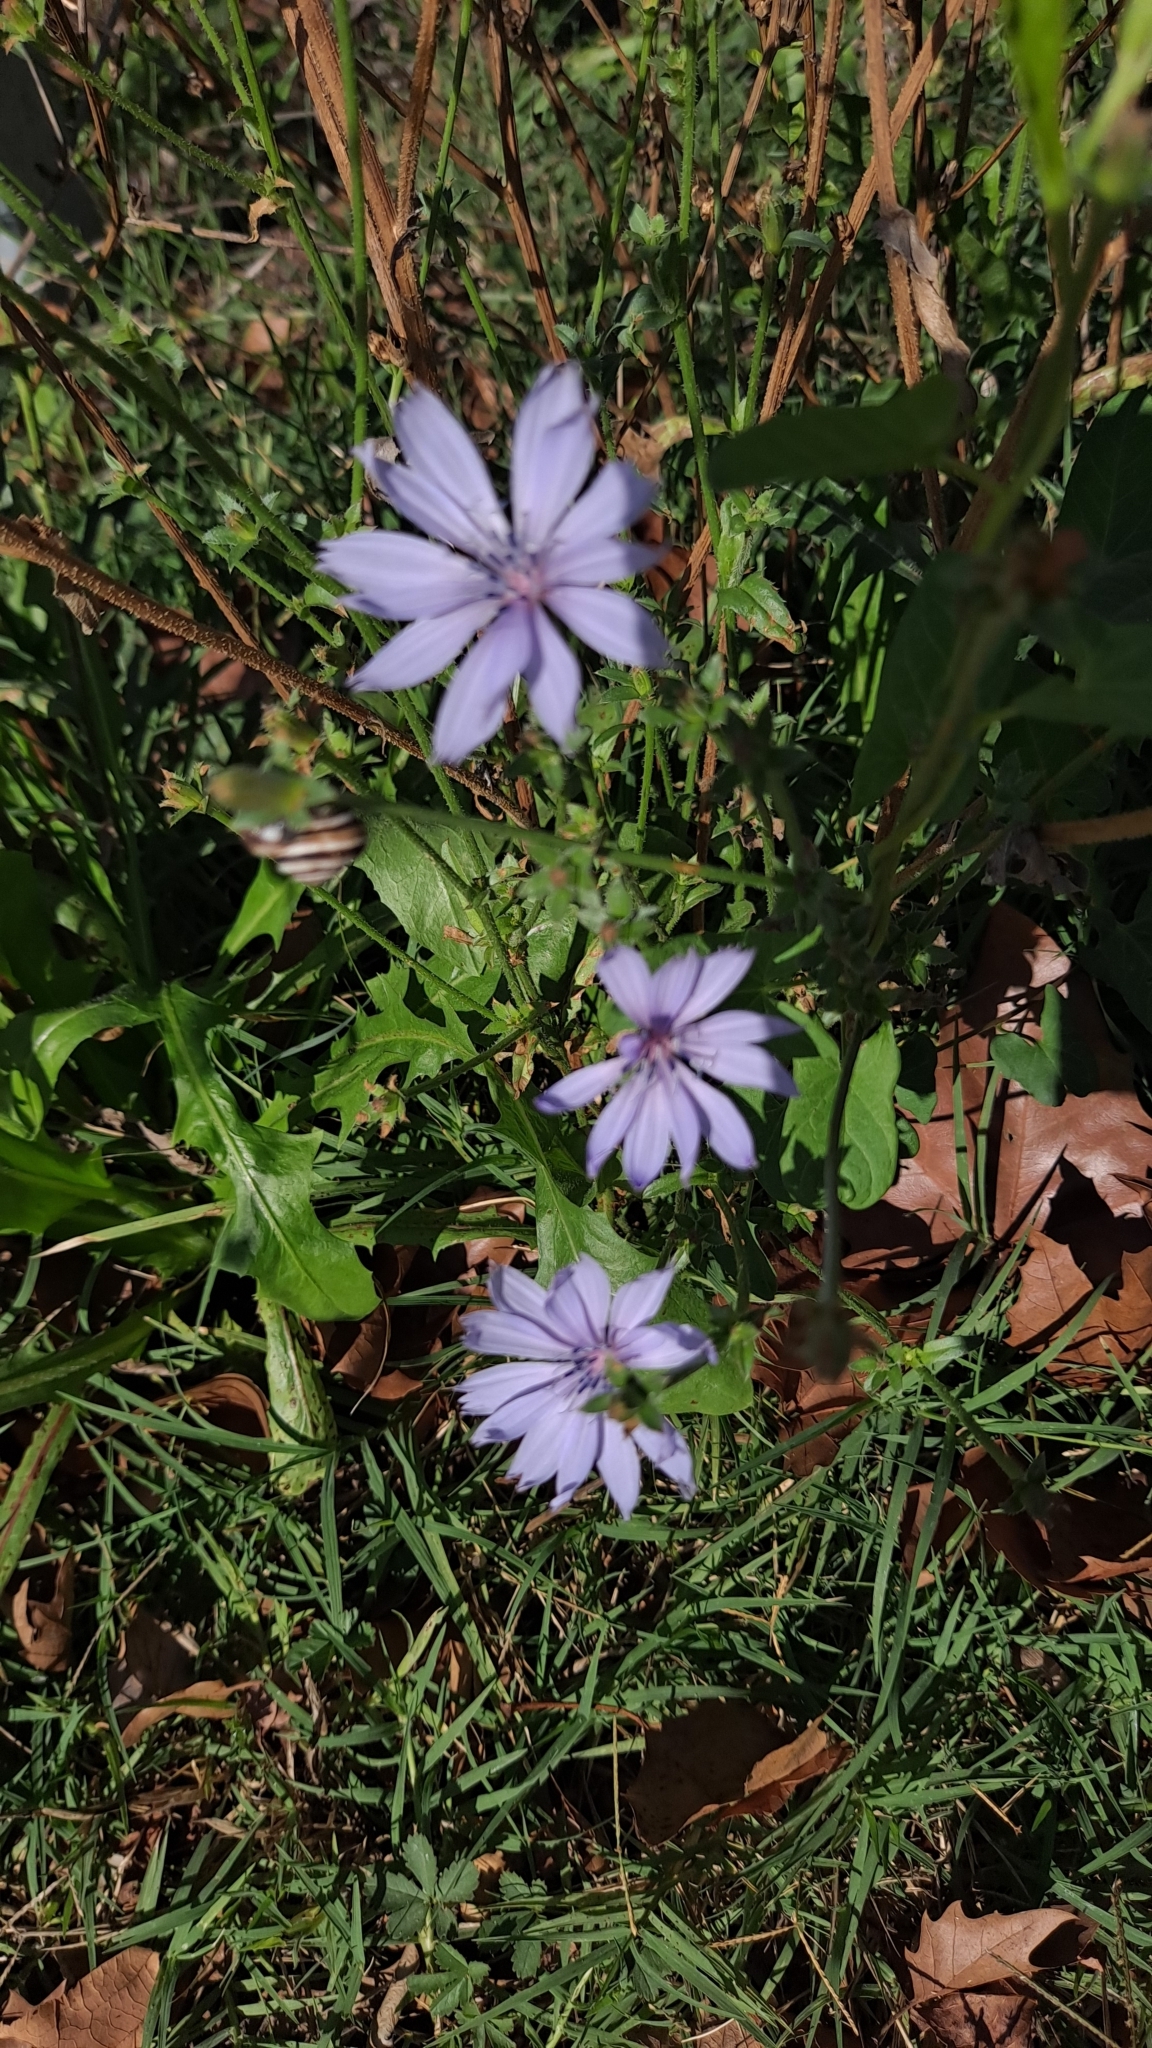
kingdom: Plantae
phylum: Tracheophyta
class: Magnoliopsida
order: Asterales
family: Asteraceae
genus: Cichorium
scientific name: Cichorium intybus
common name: Chicory
